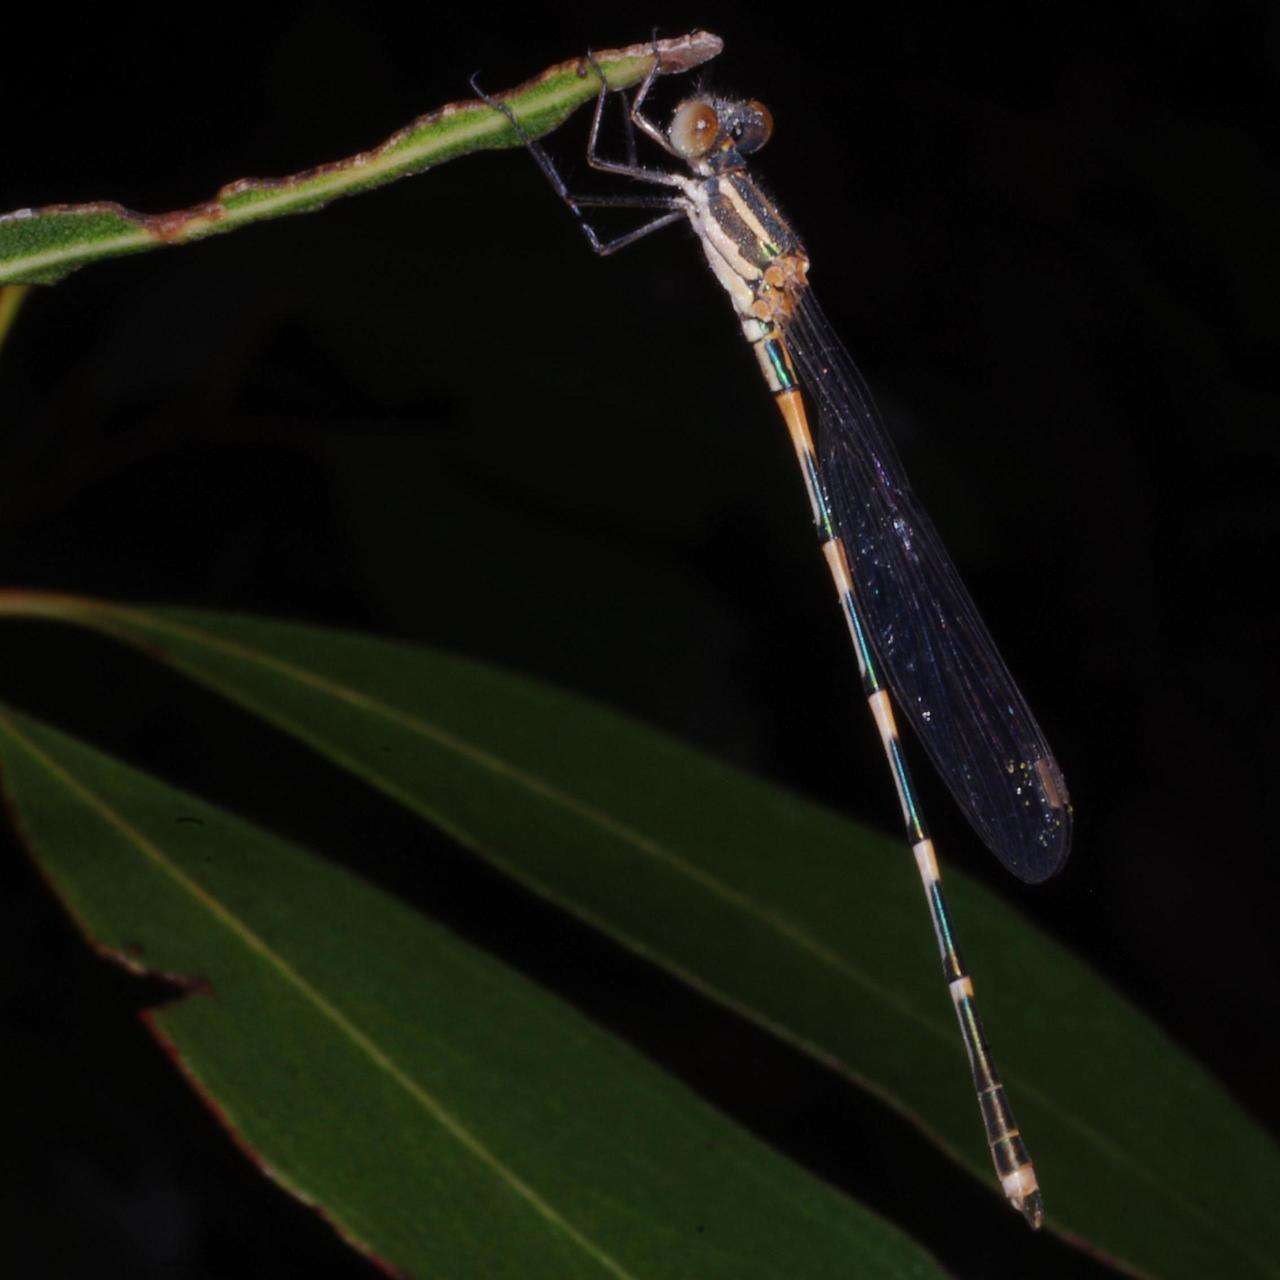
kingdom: Animalia
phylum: Arthropoda
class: Insecta
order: Odonata
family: Lestidae
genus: Austrolestes
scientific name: Austrolestes leda
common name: Wandering ringtail
